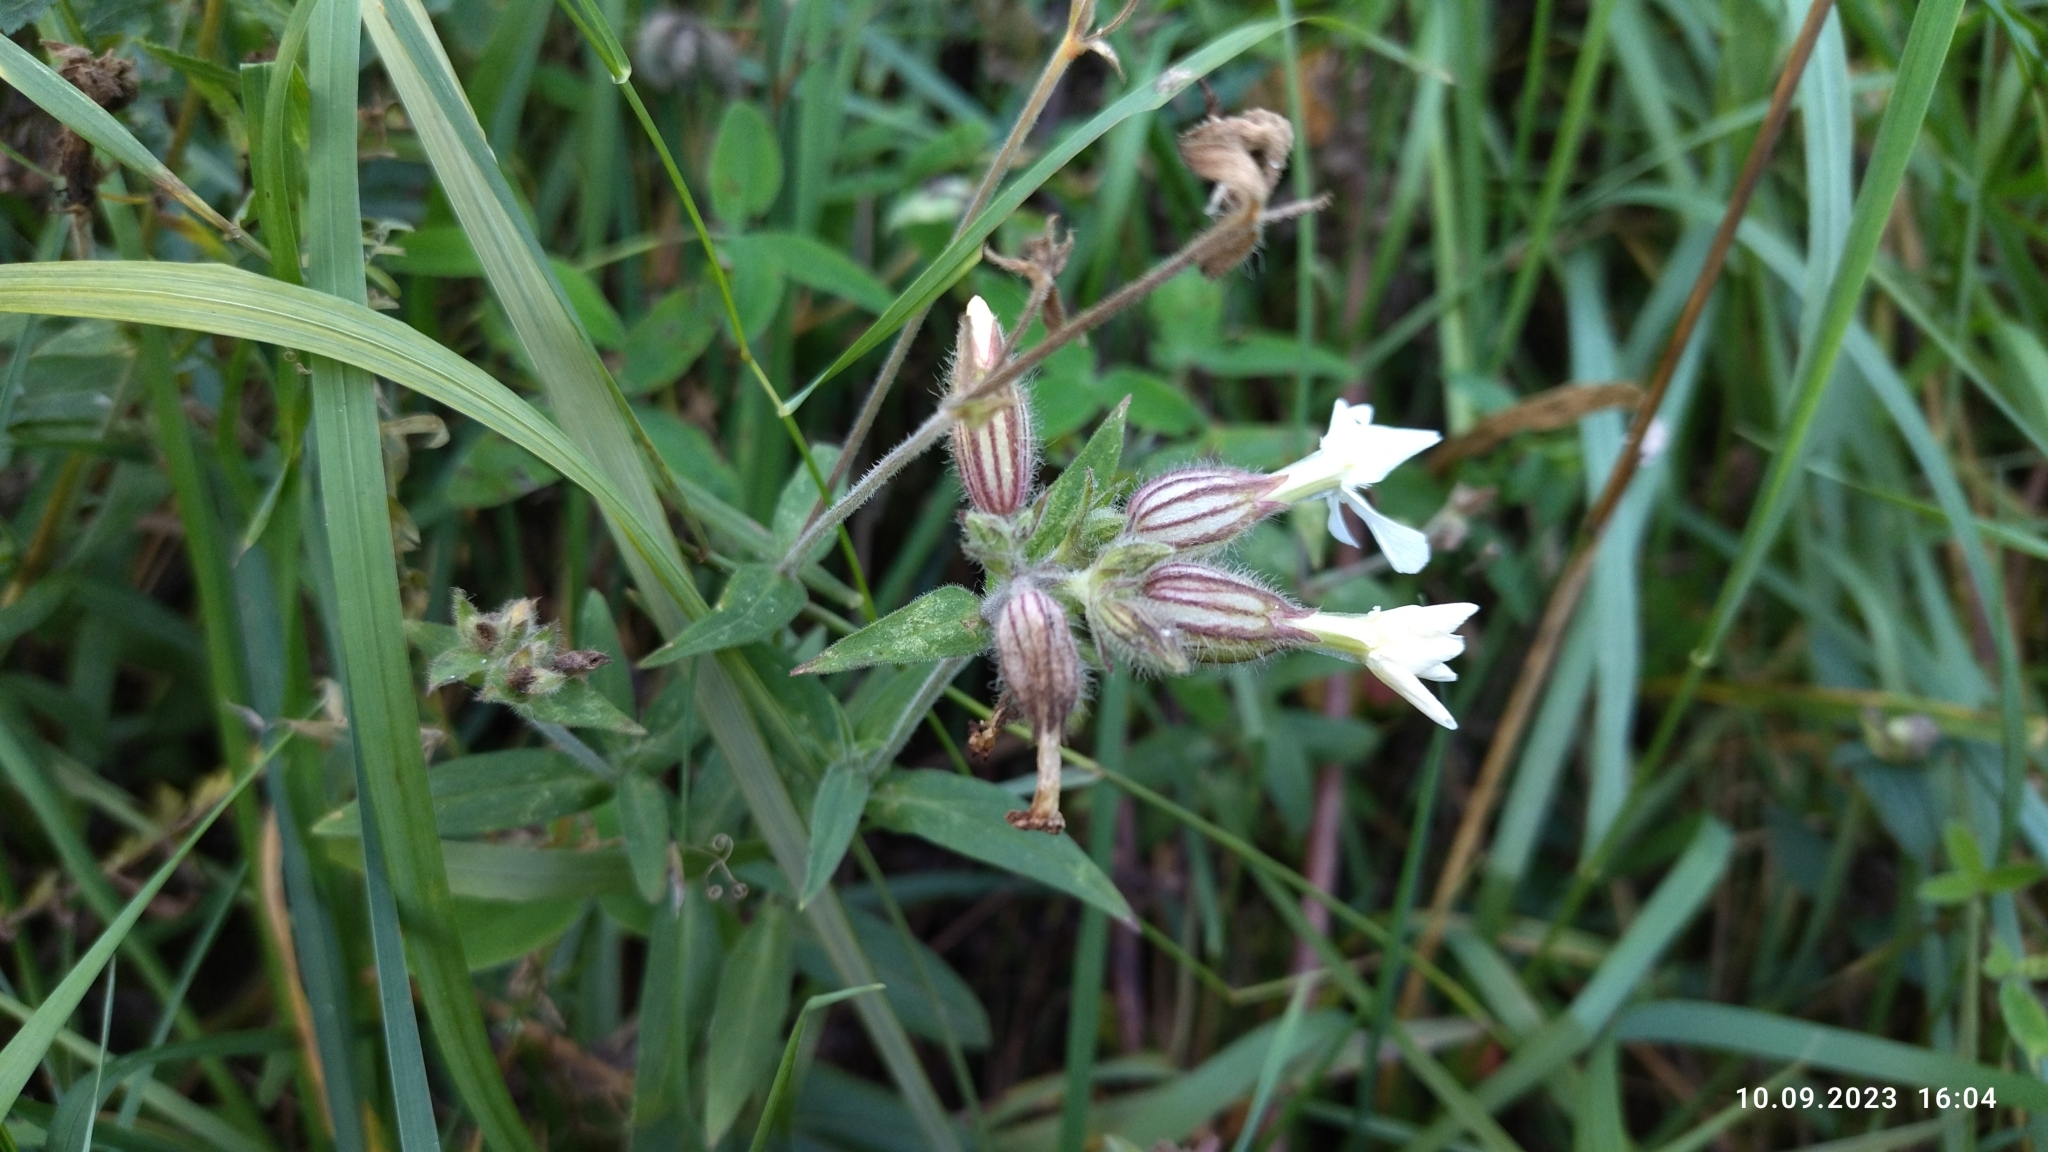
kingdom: Plantae
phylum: Tracheophyta
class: Magnoliopsida
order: Caryophyllales
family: Caryophyllaceae
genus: Silene
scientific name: Silene latifolia
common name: White campion
